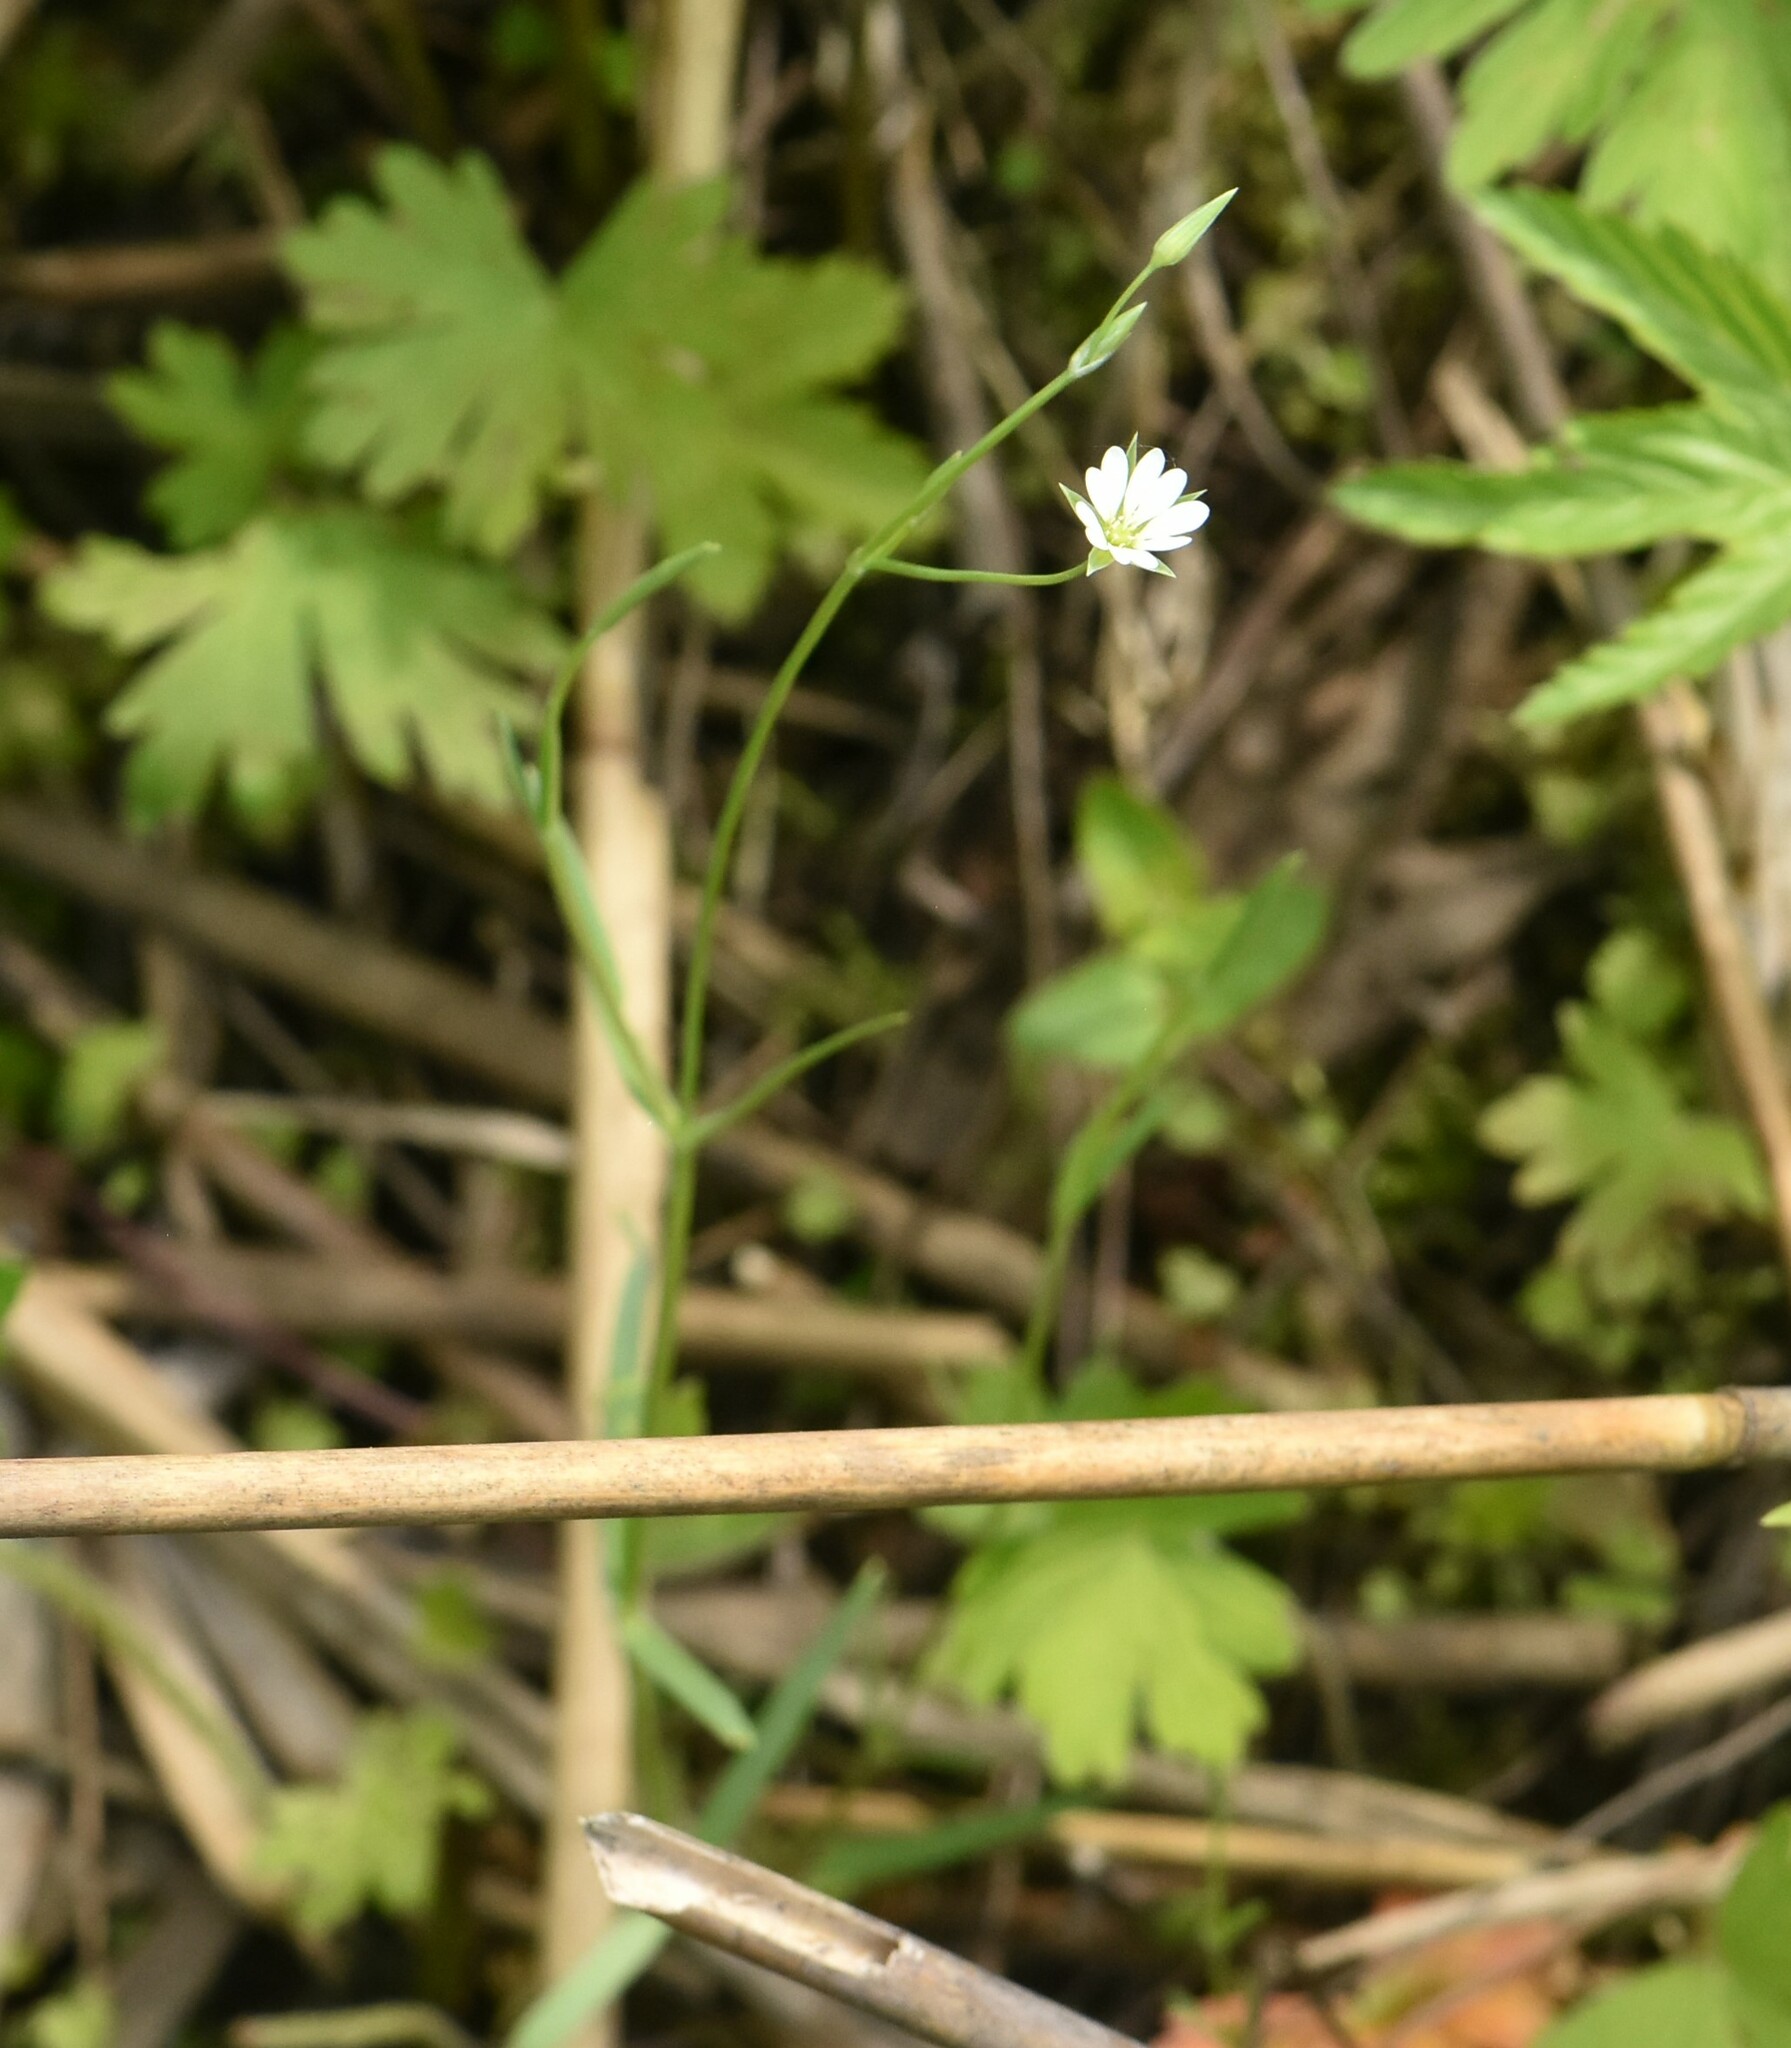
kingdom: Plantae
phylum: Tracheophyta
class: Magnoliopsida
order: Caryophyllales
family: Caryophyllaceae
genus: Stellaria
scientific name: Stellaria palustris
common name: Marsh stitchwort
